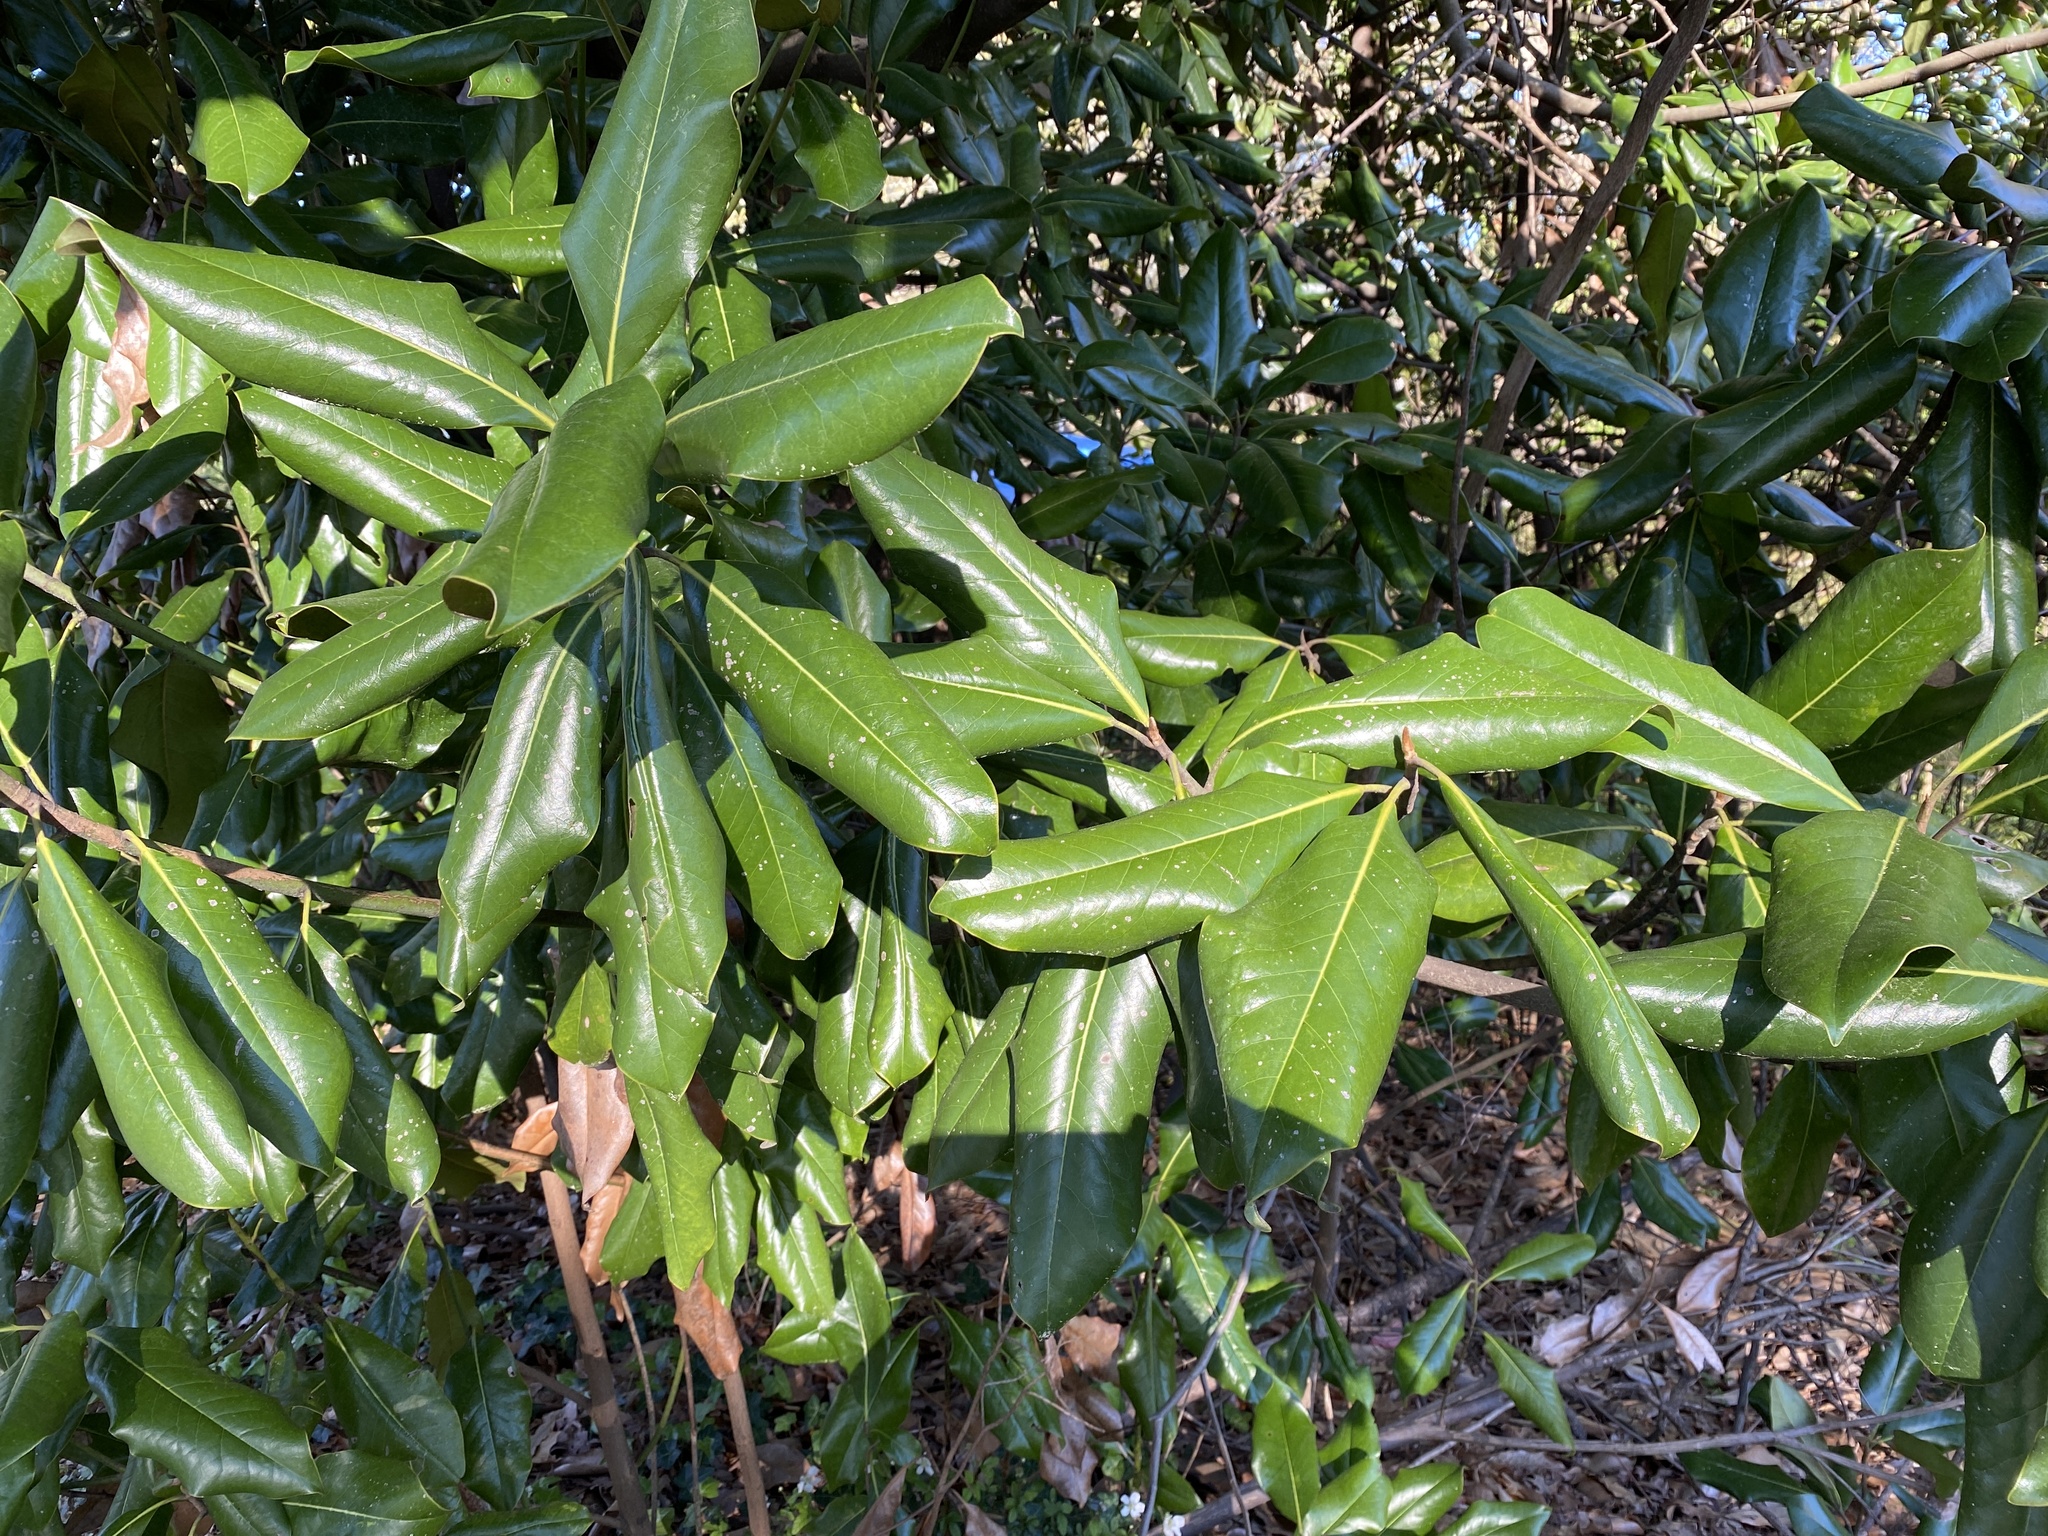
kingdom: Plantae
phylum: Tracheophyta
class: Magnoliopsida
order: Magnoliales
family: Magnoliaceae
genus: Magnolia
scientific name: Magnolia grandiflora
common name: Southern magnolia
